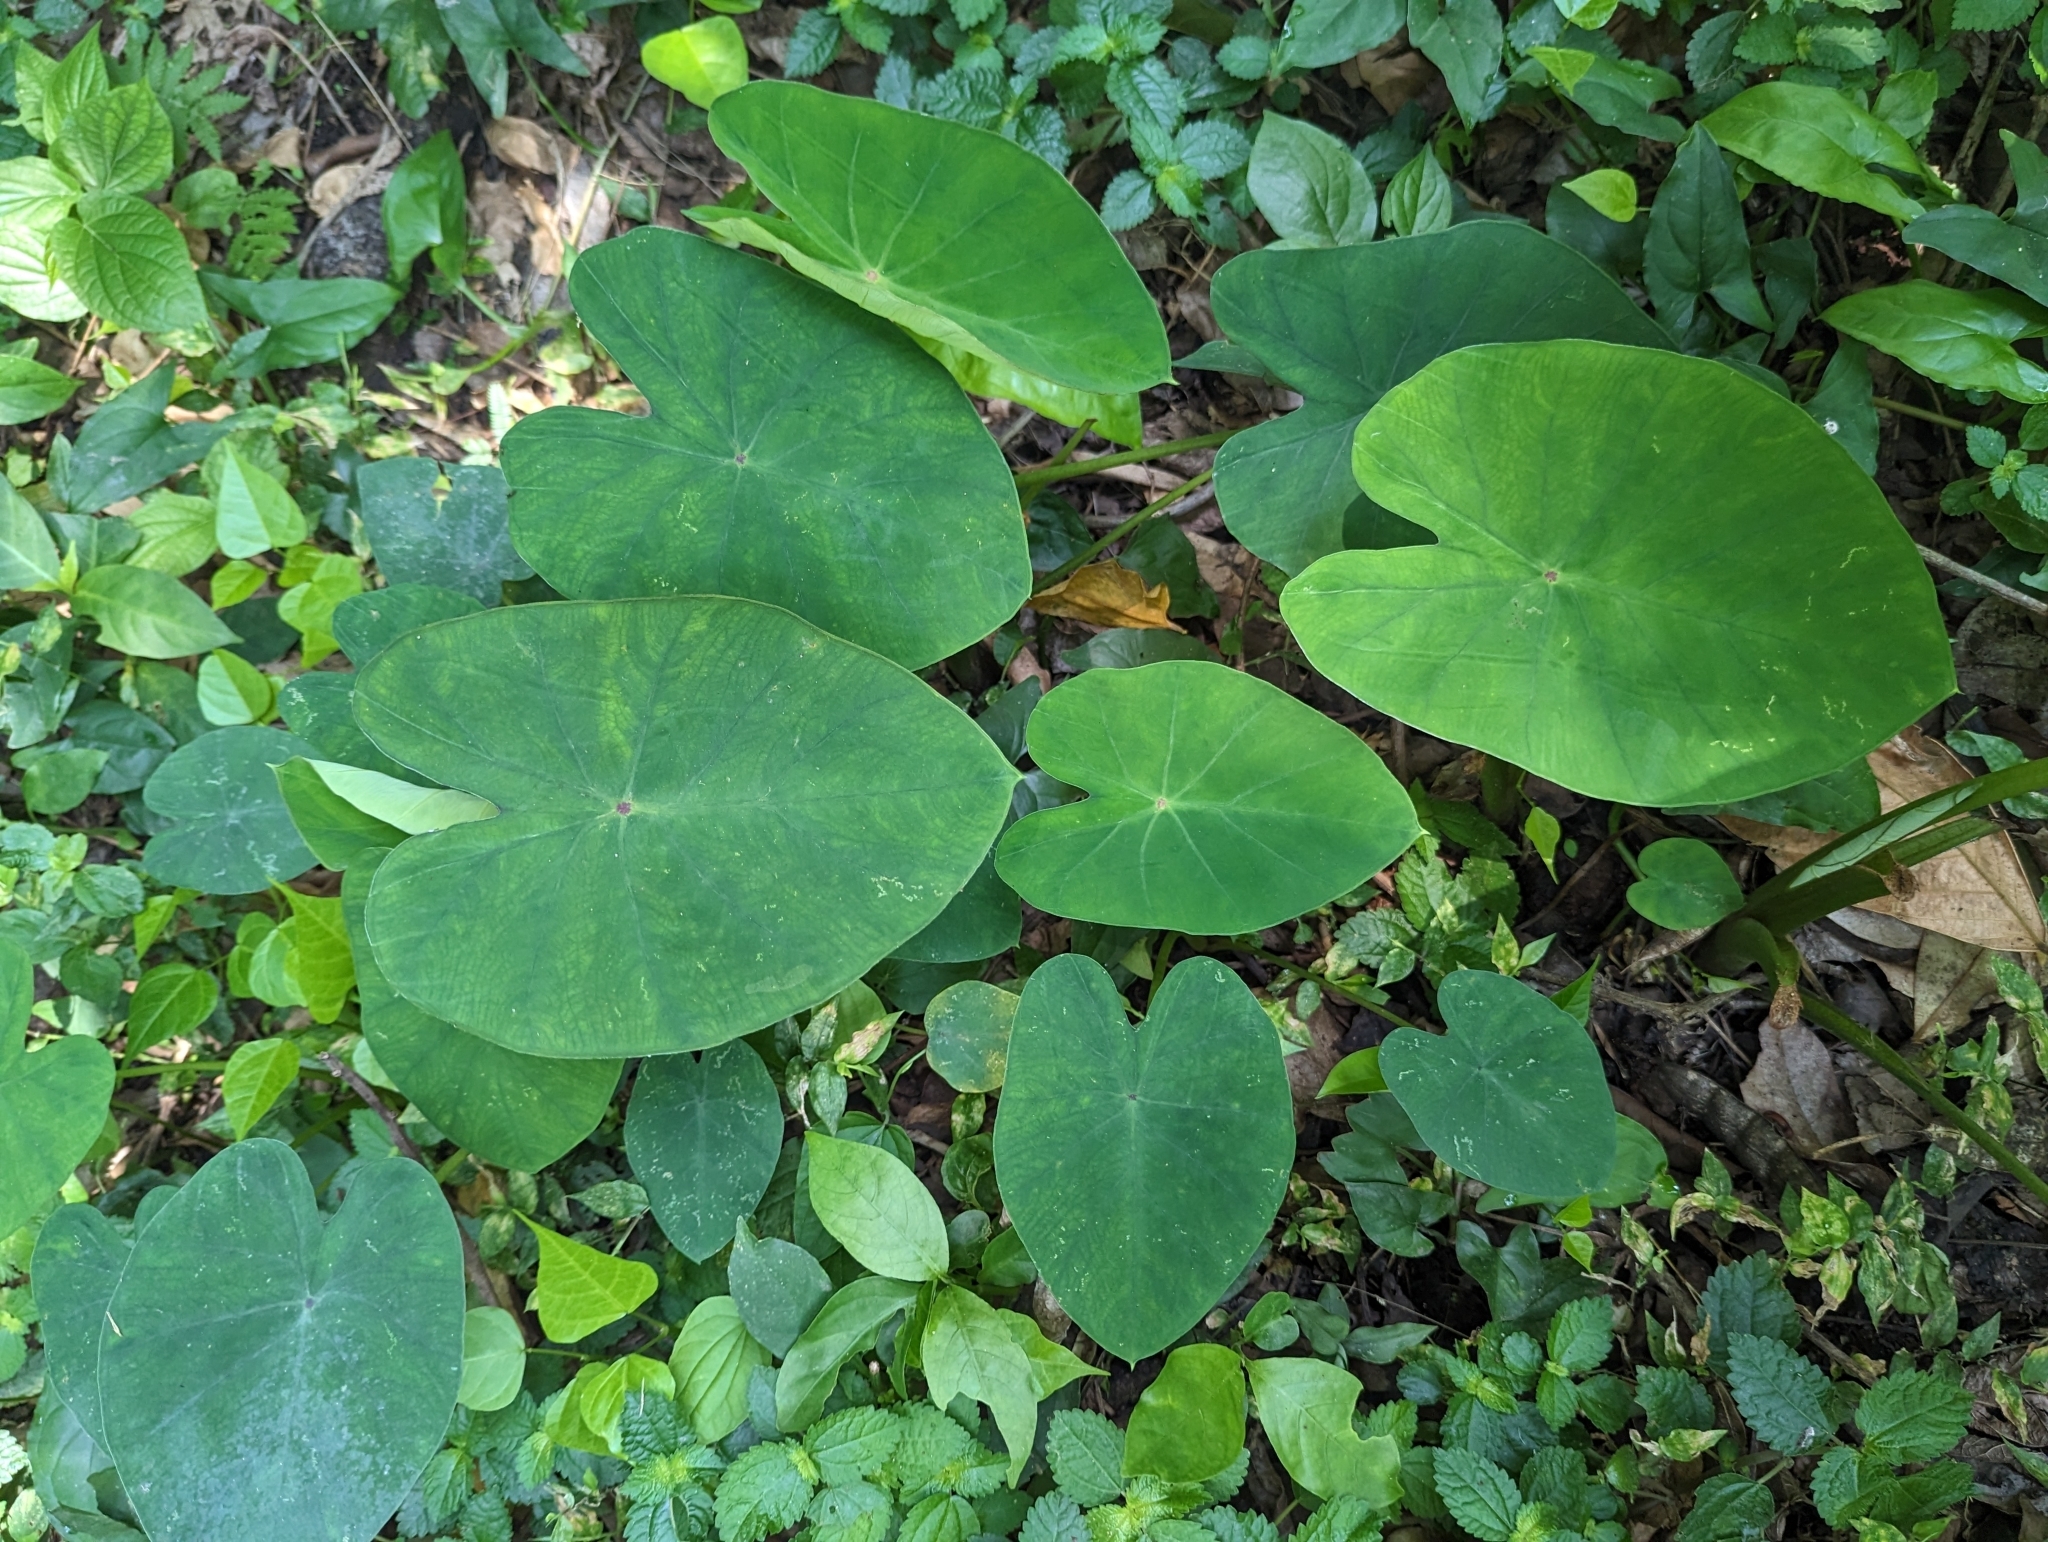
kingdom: Plantae
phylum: Tracheophyta
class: Liliopsida
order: Alismatales
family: Araceae
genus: Colocasia
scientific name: Colocasia esculenta
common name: Taro
